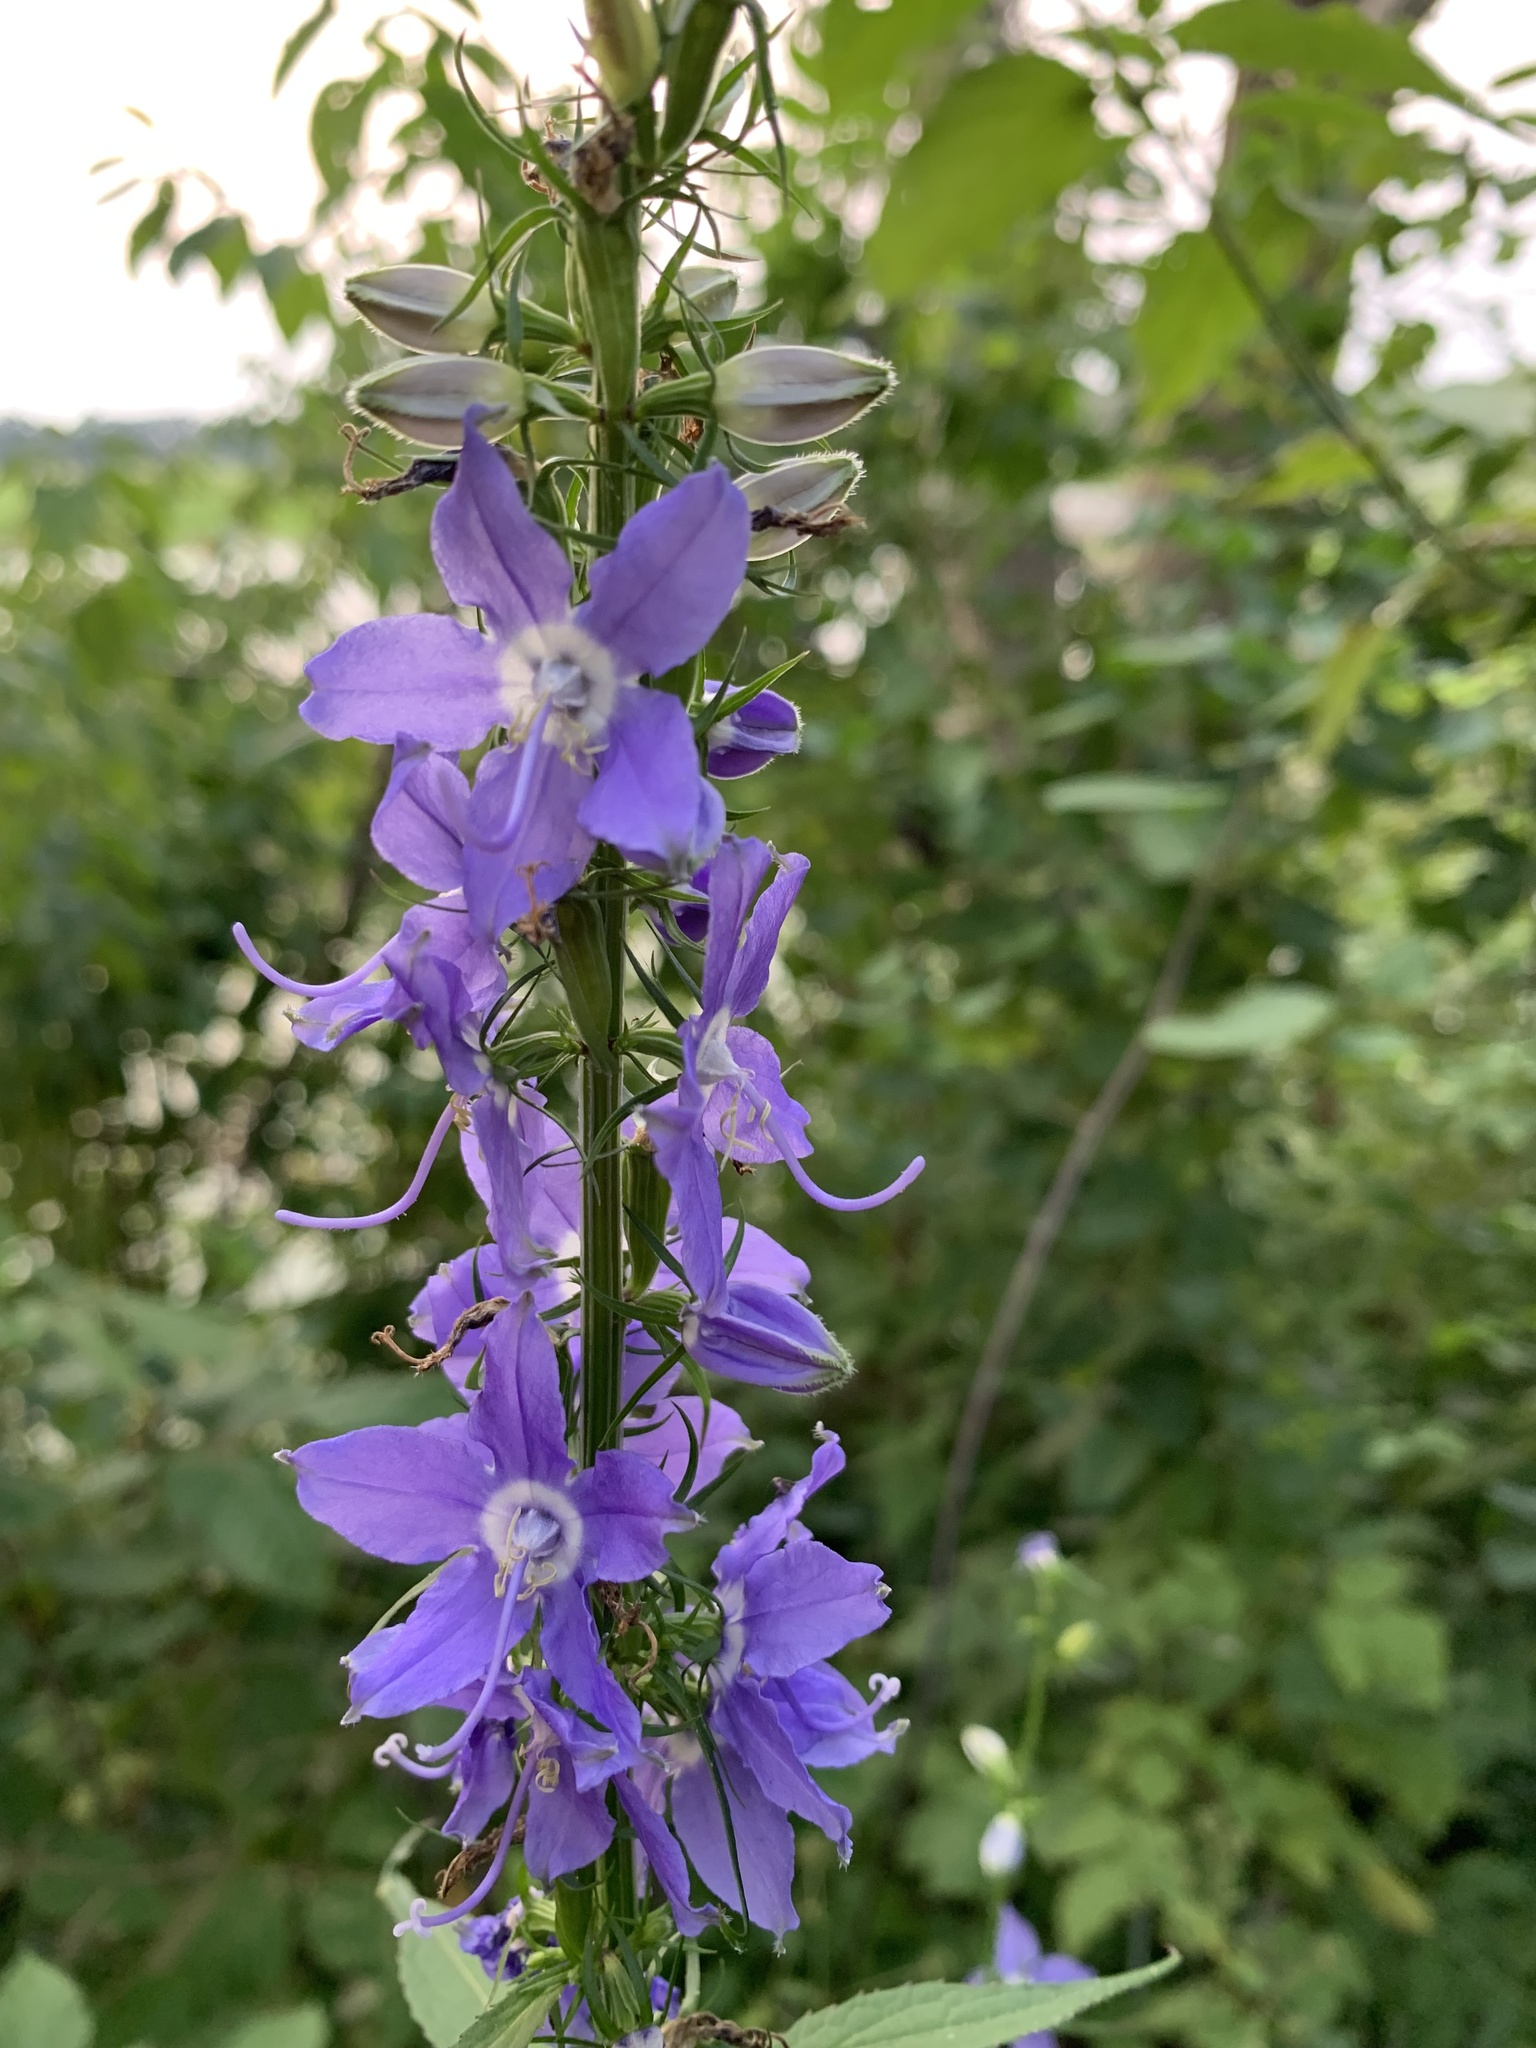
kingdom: Plantae
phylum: Tracheophyta
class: Magnoliopsida
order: Asterales
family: Campanulaceae
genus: Campanulastrum
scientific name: Campanulastrum americanum
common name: American bellflower
